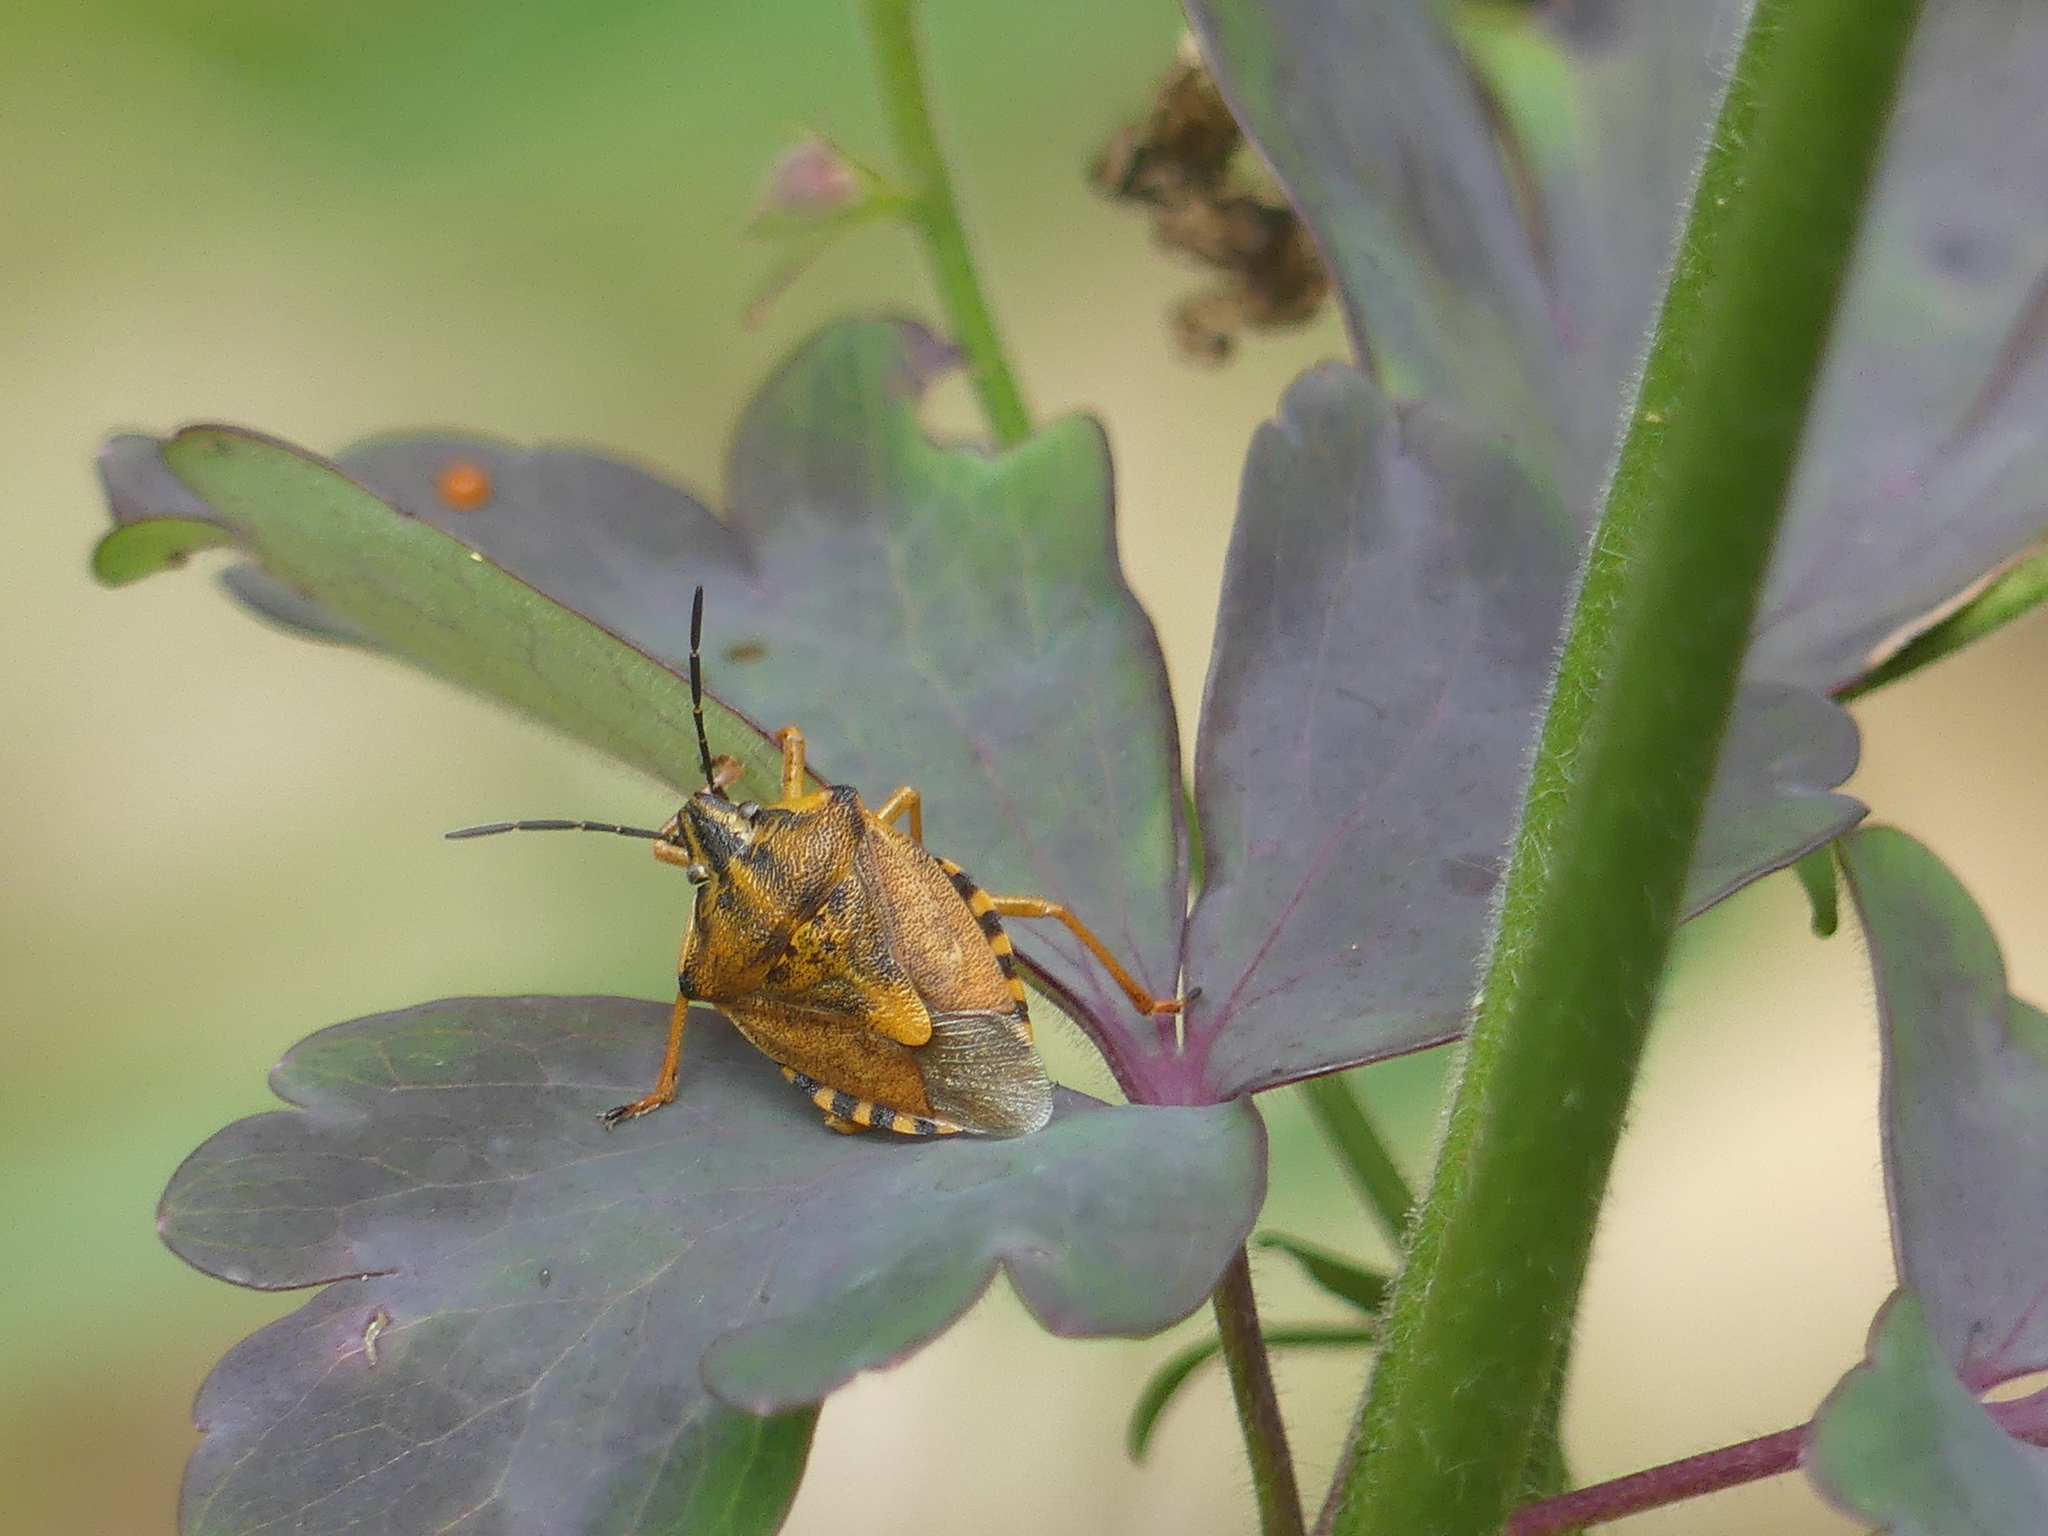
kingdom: Animalia
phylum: Arthropoda
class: Insecta
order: Hemiptera
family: Pentatomidae
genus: Carpocoris
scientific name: Carpocoris purpureipennis
